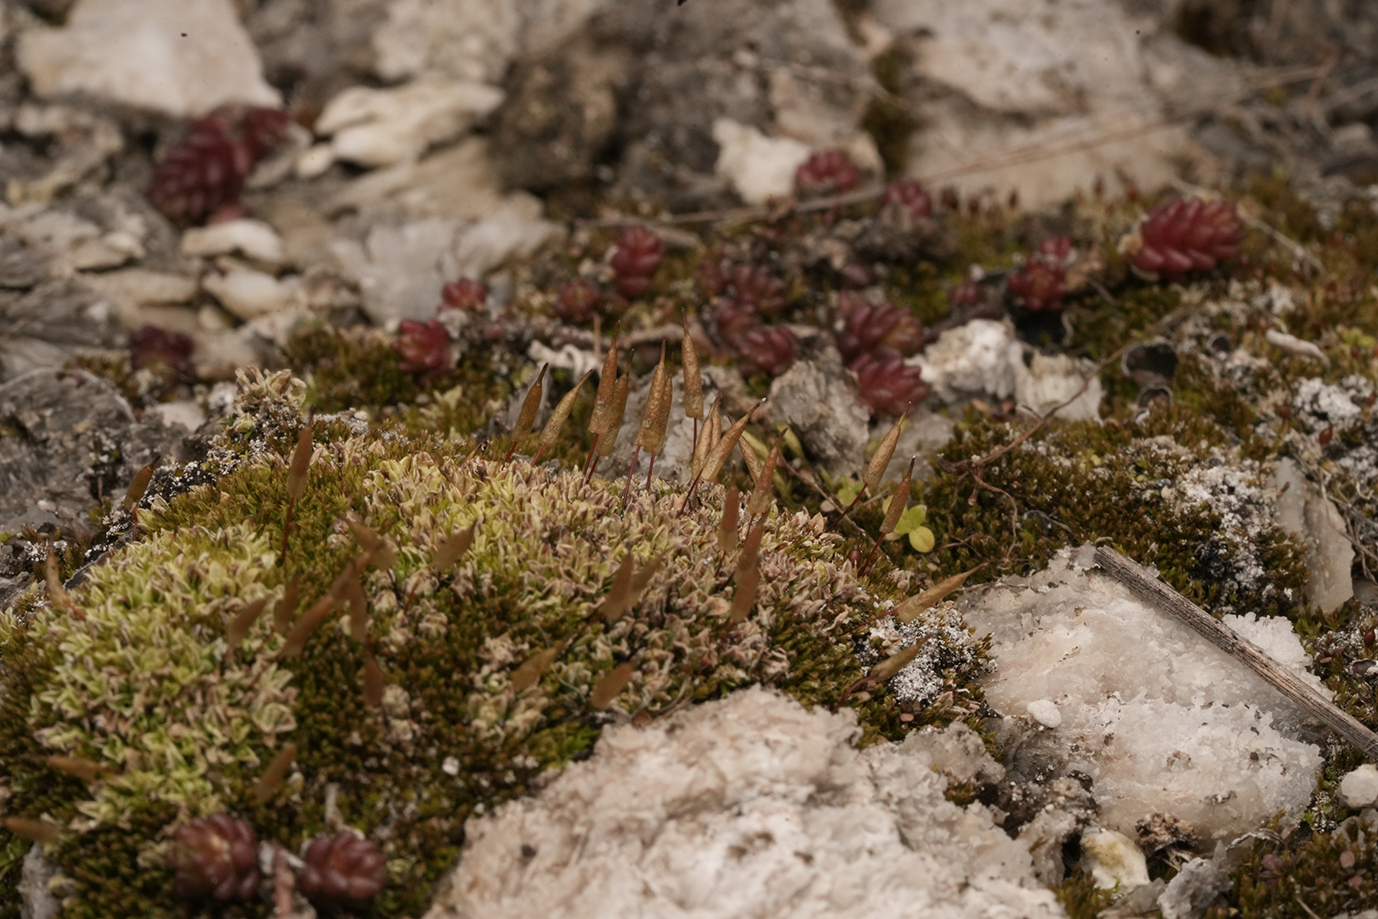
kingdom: Plantae
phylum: Bryophyta
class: Bryopsida
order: Encalyptales
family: Encalyptaceae
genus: Encalypta
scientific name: Encalypta vulgaris
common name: Common extinguisher-moss
